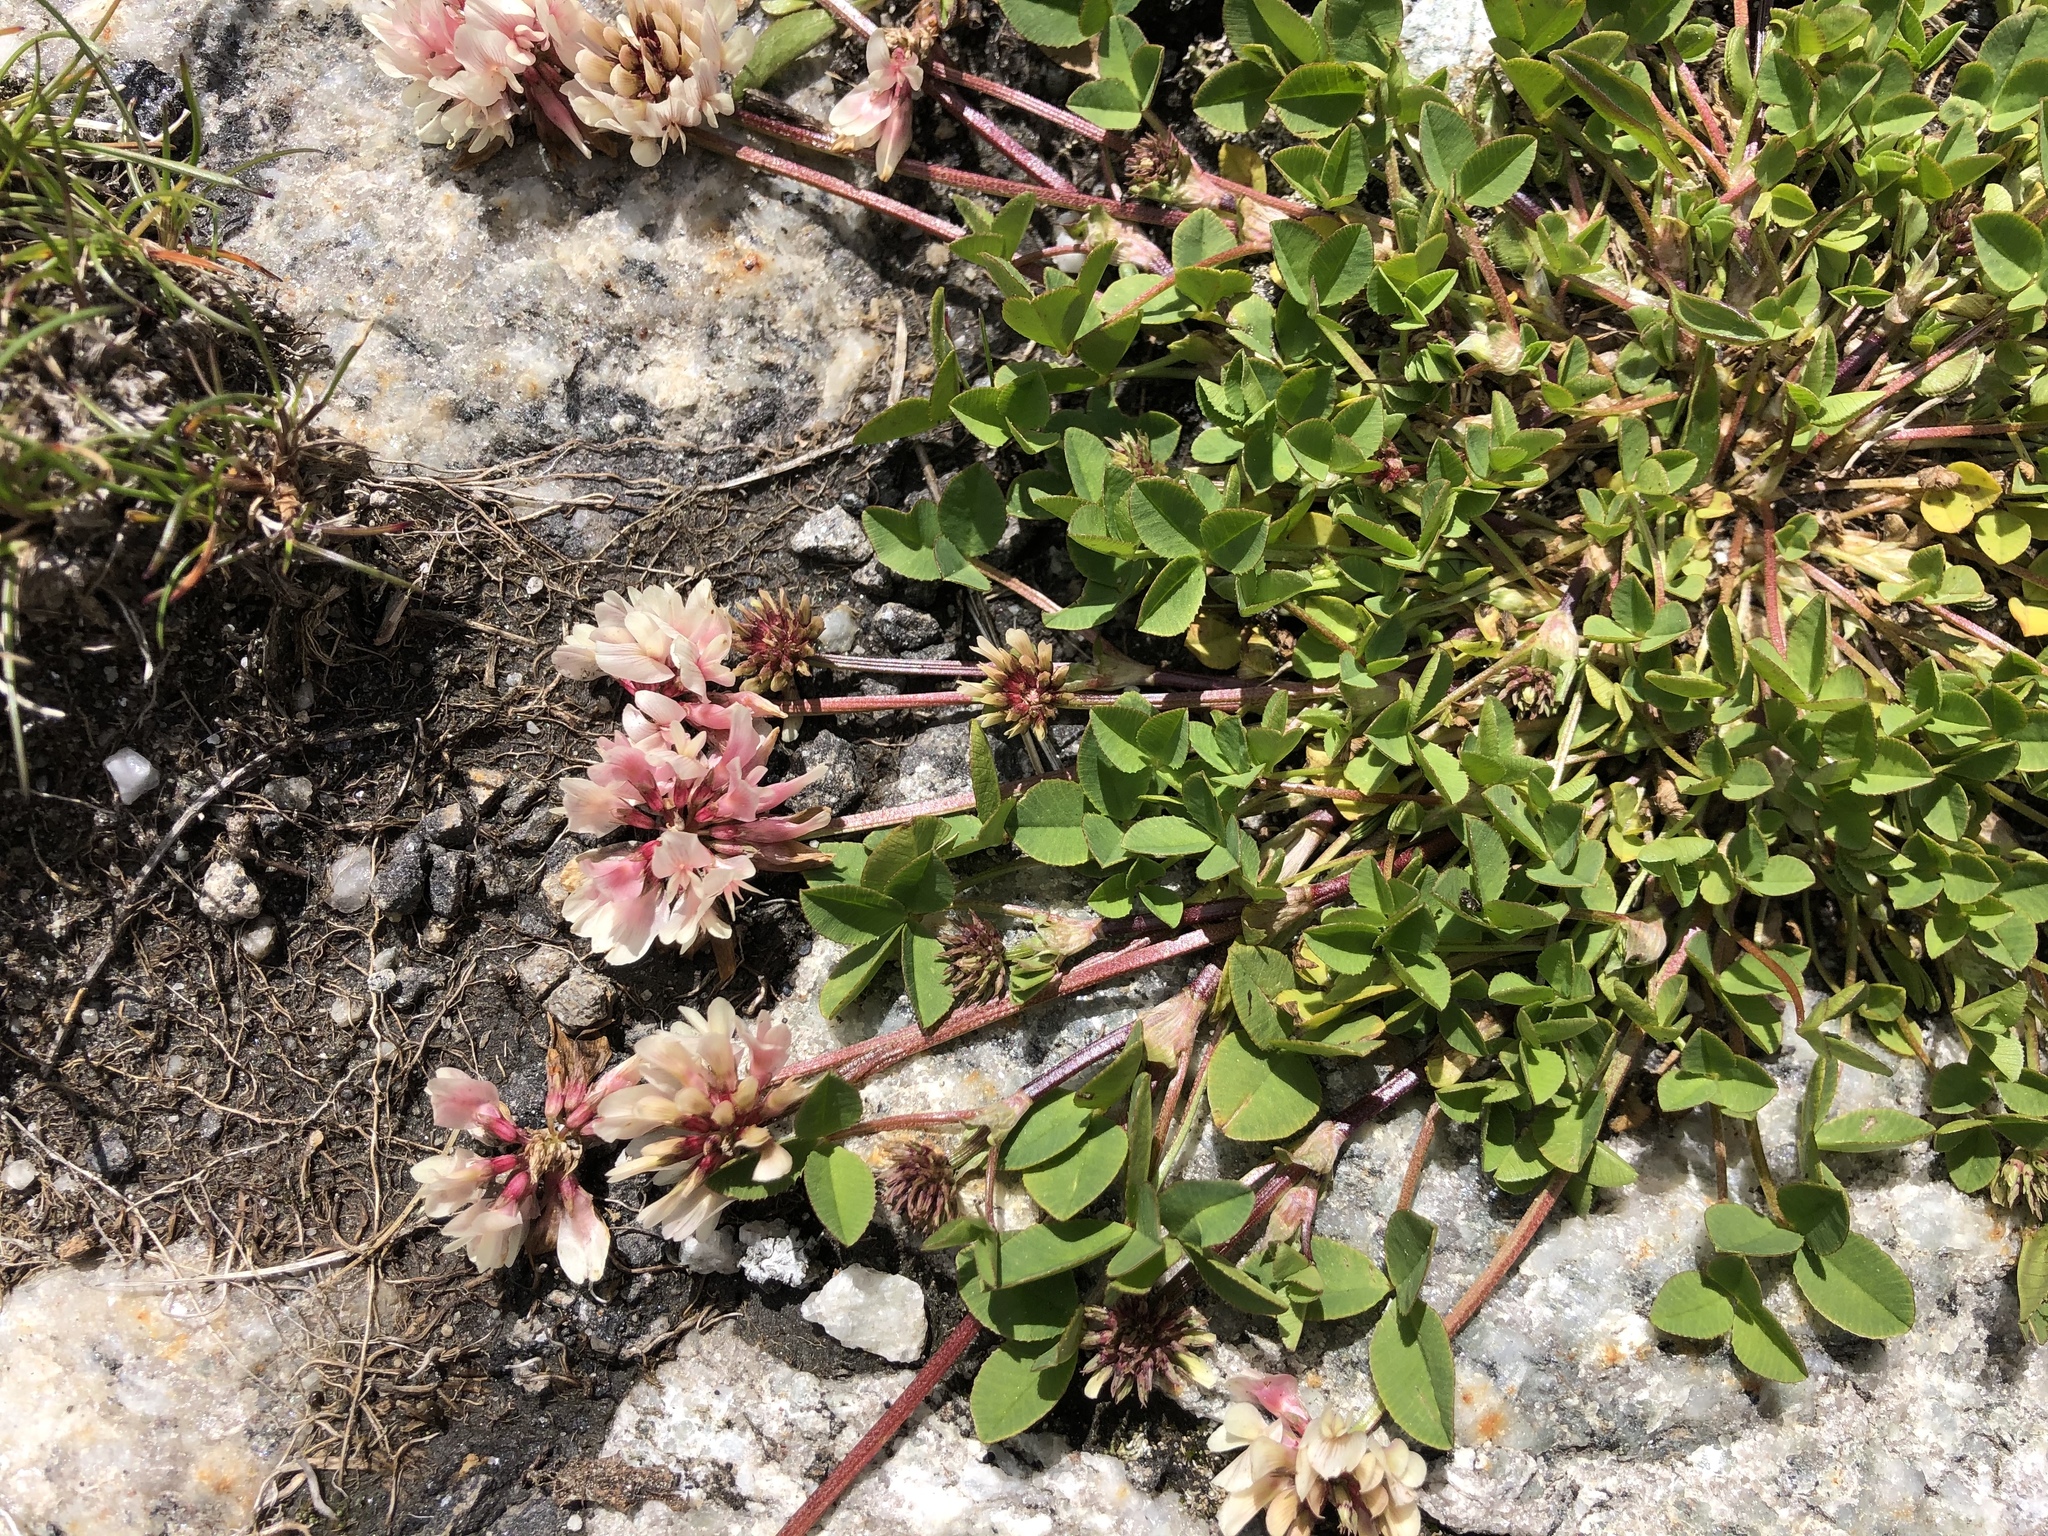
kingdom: Plantae
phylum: Tracheophyta
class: Magnoliopsida
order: Fabales
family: Fabaceae
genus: Trifolium
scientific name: Trifolium pallescens
